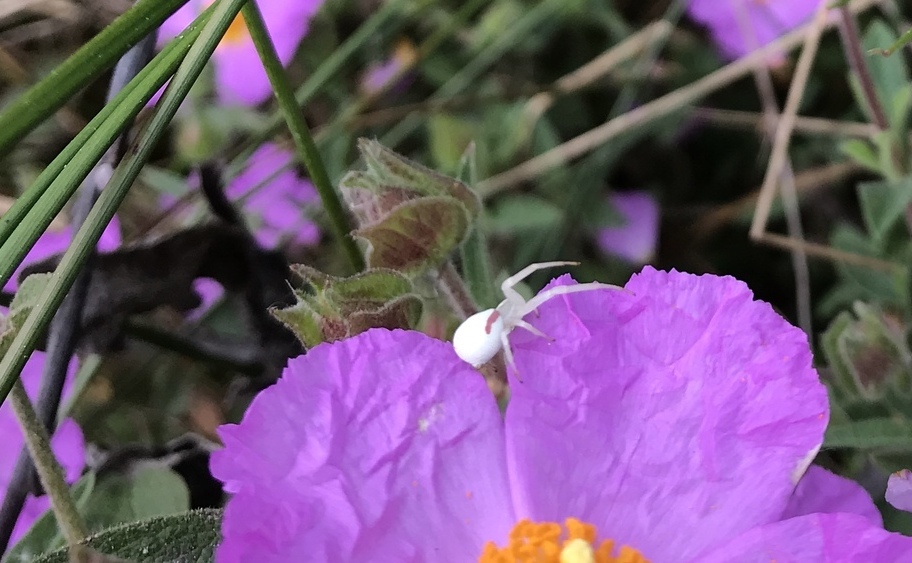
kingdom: Animalia
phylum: Arthropoda
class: Arachnida
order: Araneae
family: Thomisidae
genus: Misumena
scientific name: Misumena vatia
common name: Goldenrod crab spider
